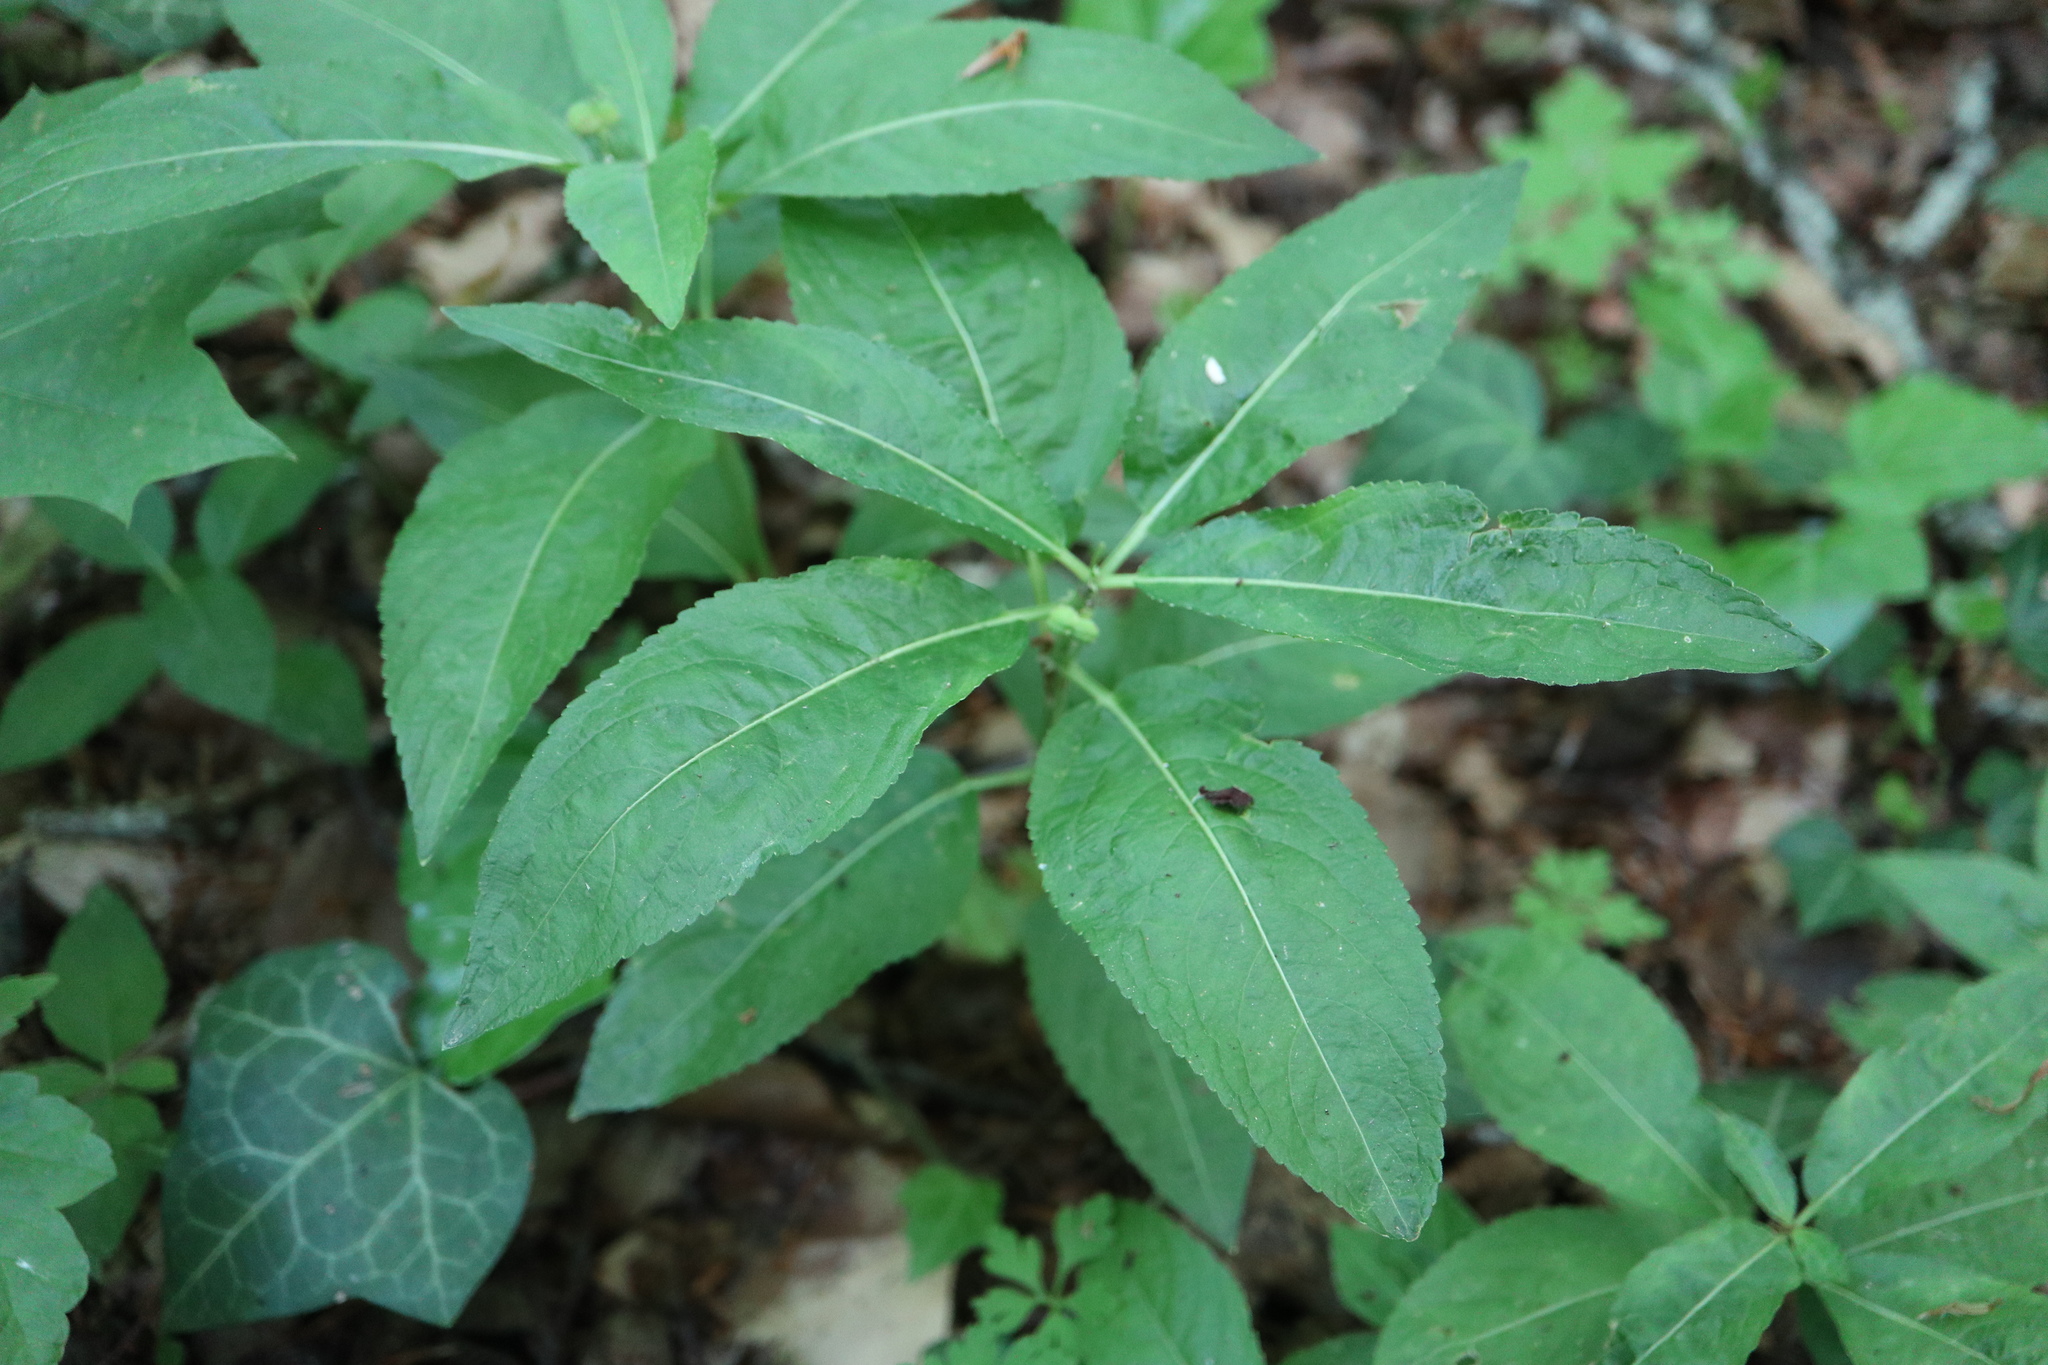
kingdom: Plantae
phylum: Tracheophyta
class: Magnoliopsida
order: Malpighiales
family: Euphorbiaceae
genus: Mercurialis
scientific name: Mercurialis perennis
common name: Dog mercury
